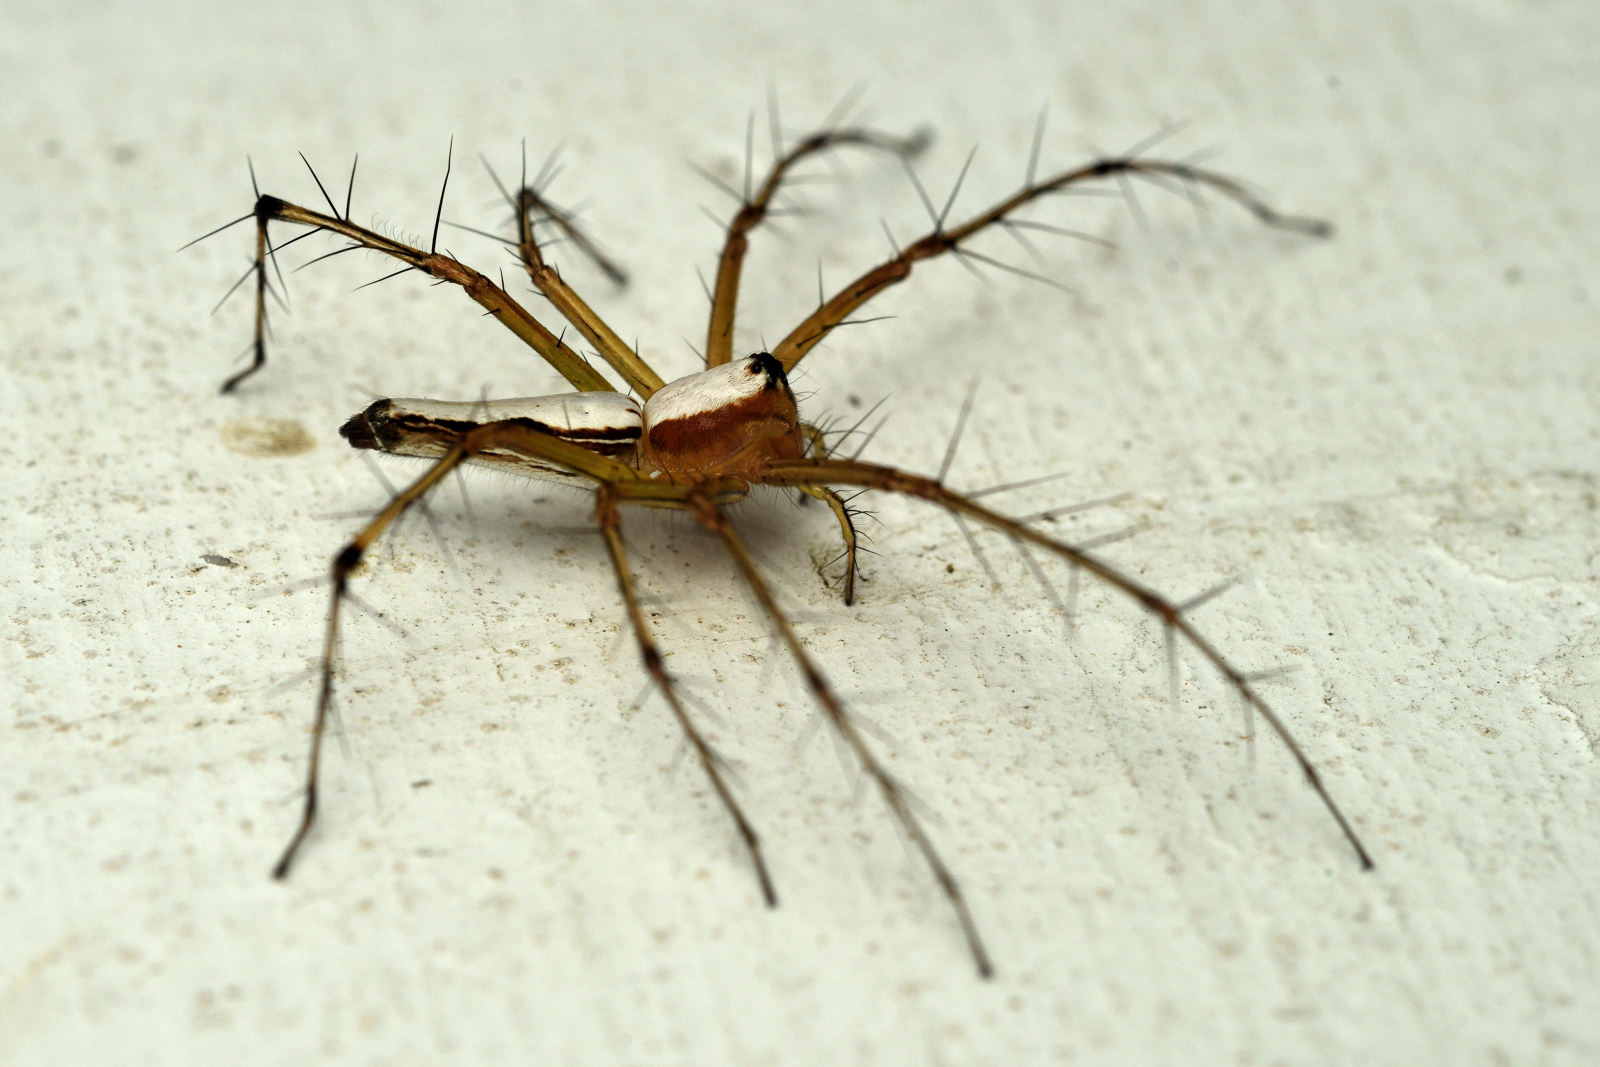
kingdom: Animalia
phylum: Arthropoda
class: Arachnida
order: Araneae
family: Oxyopidae
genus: Oxyopes
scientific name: Oxyopes shweta
